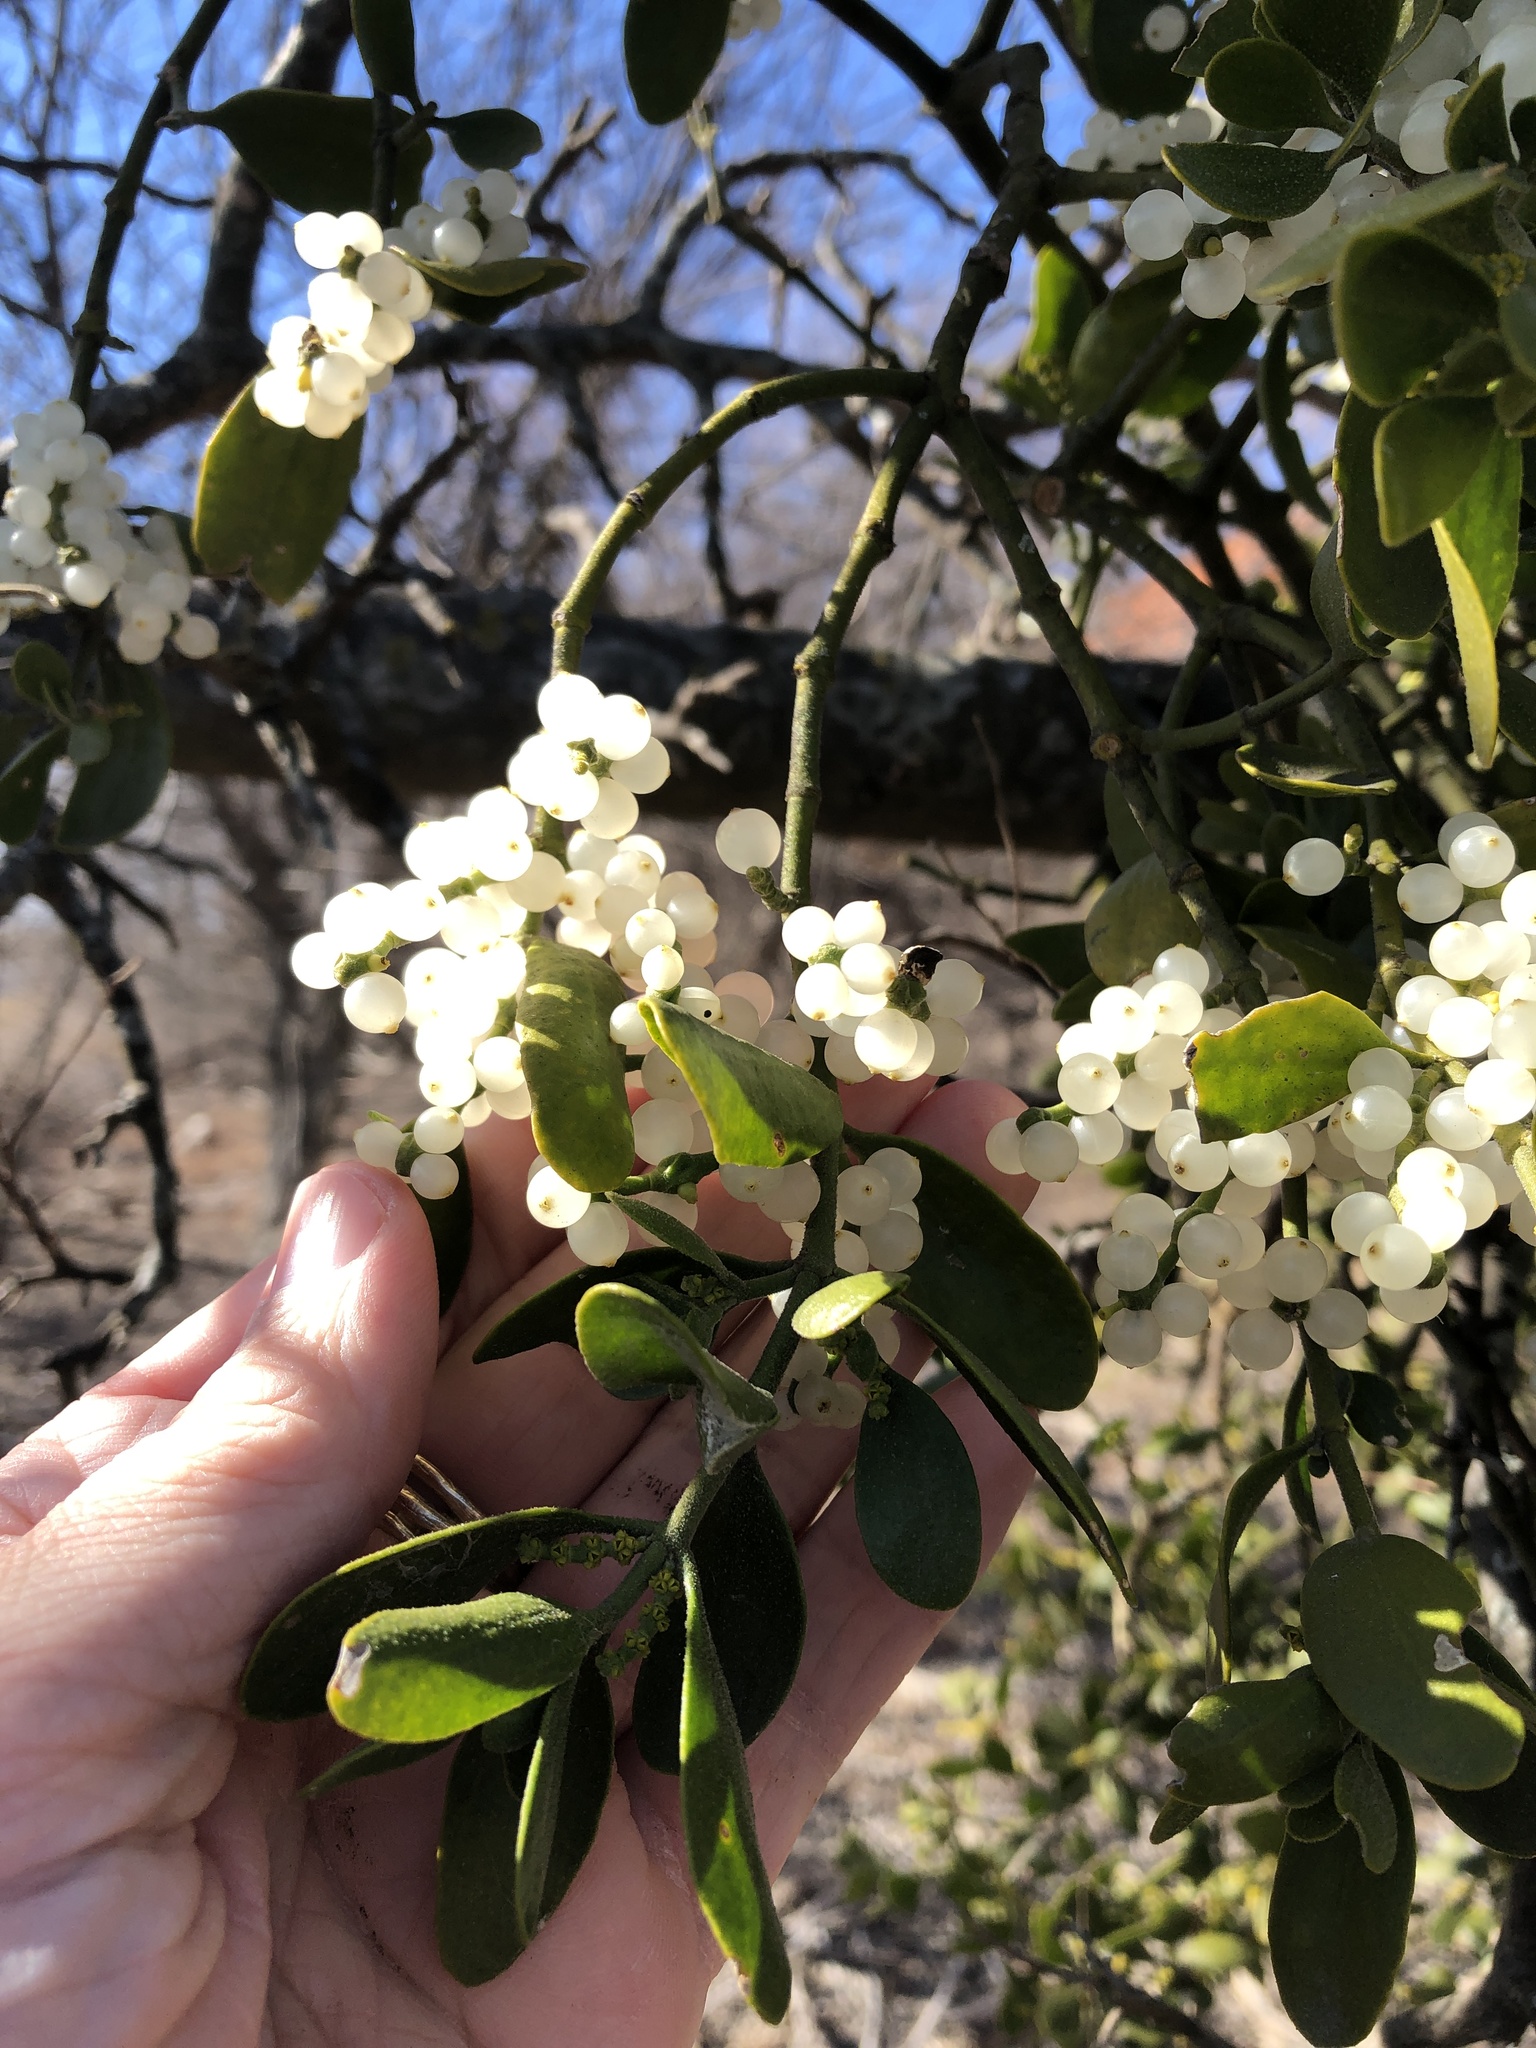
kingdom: Plantae
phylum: Tracheophyta
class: Magnoliopsida
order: Santalales
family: Viscaceae
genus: Phoradendron
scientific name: Phoradendron leucarpum
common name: Pacific mistletoe
